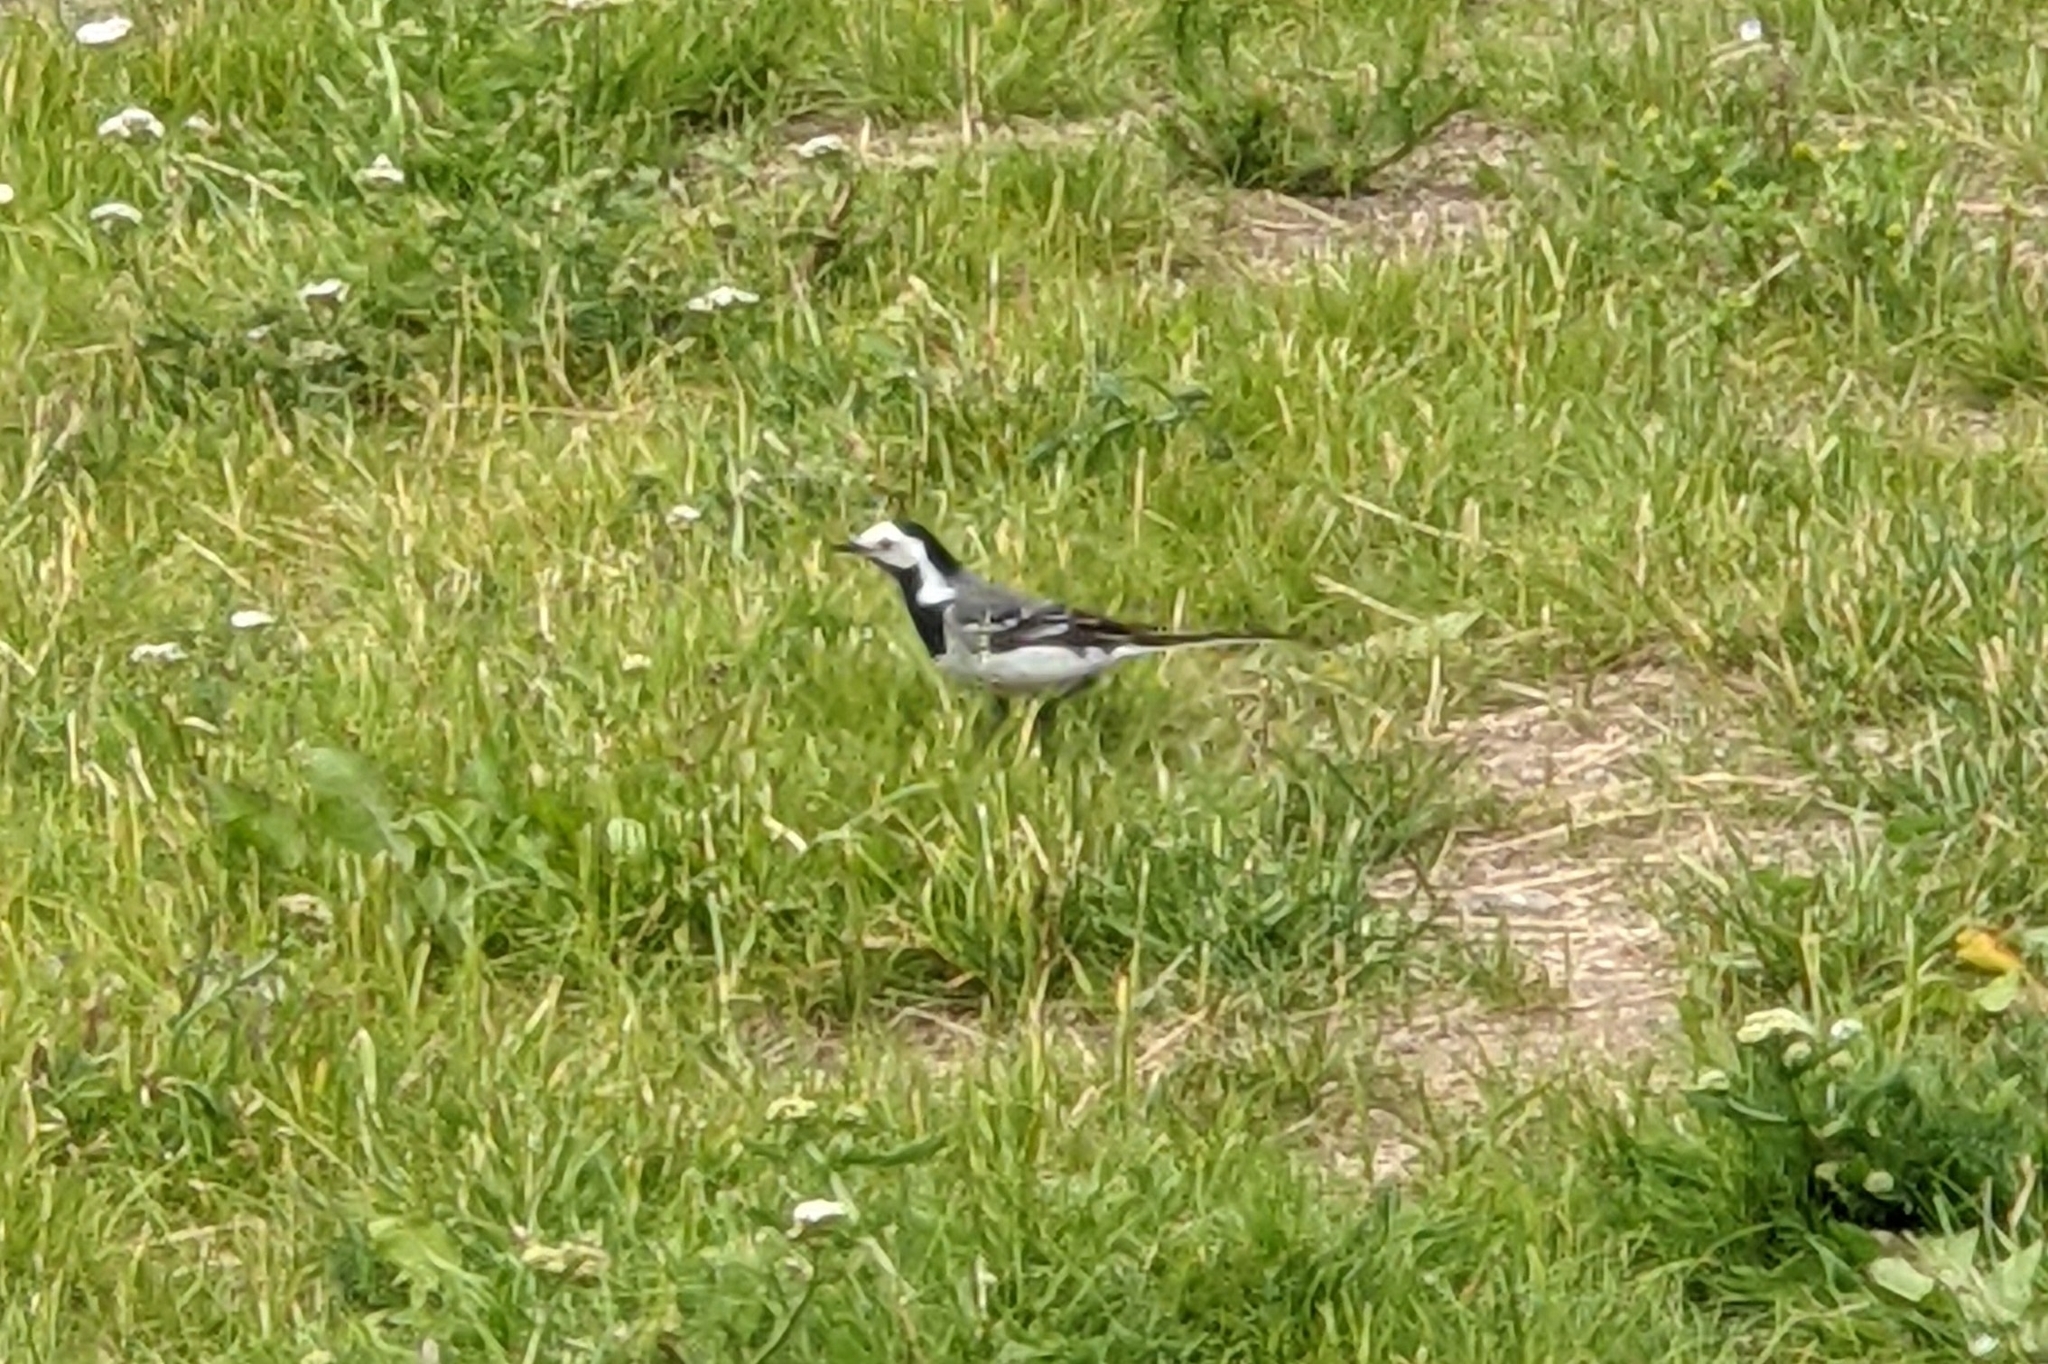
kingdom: Animalia
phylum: Chordata
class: Aves
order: Passeriformes
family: Motacillidae
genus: Motacilla
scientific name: Motacilla alba
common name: White wagtail
